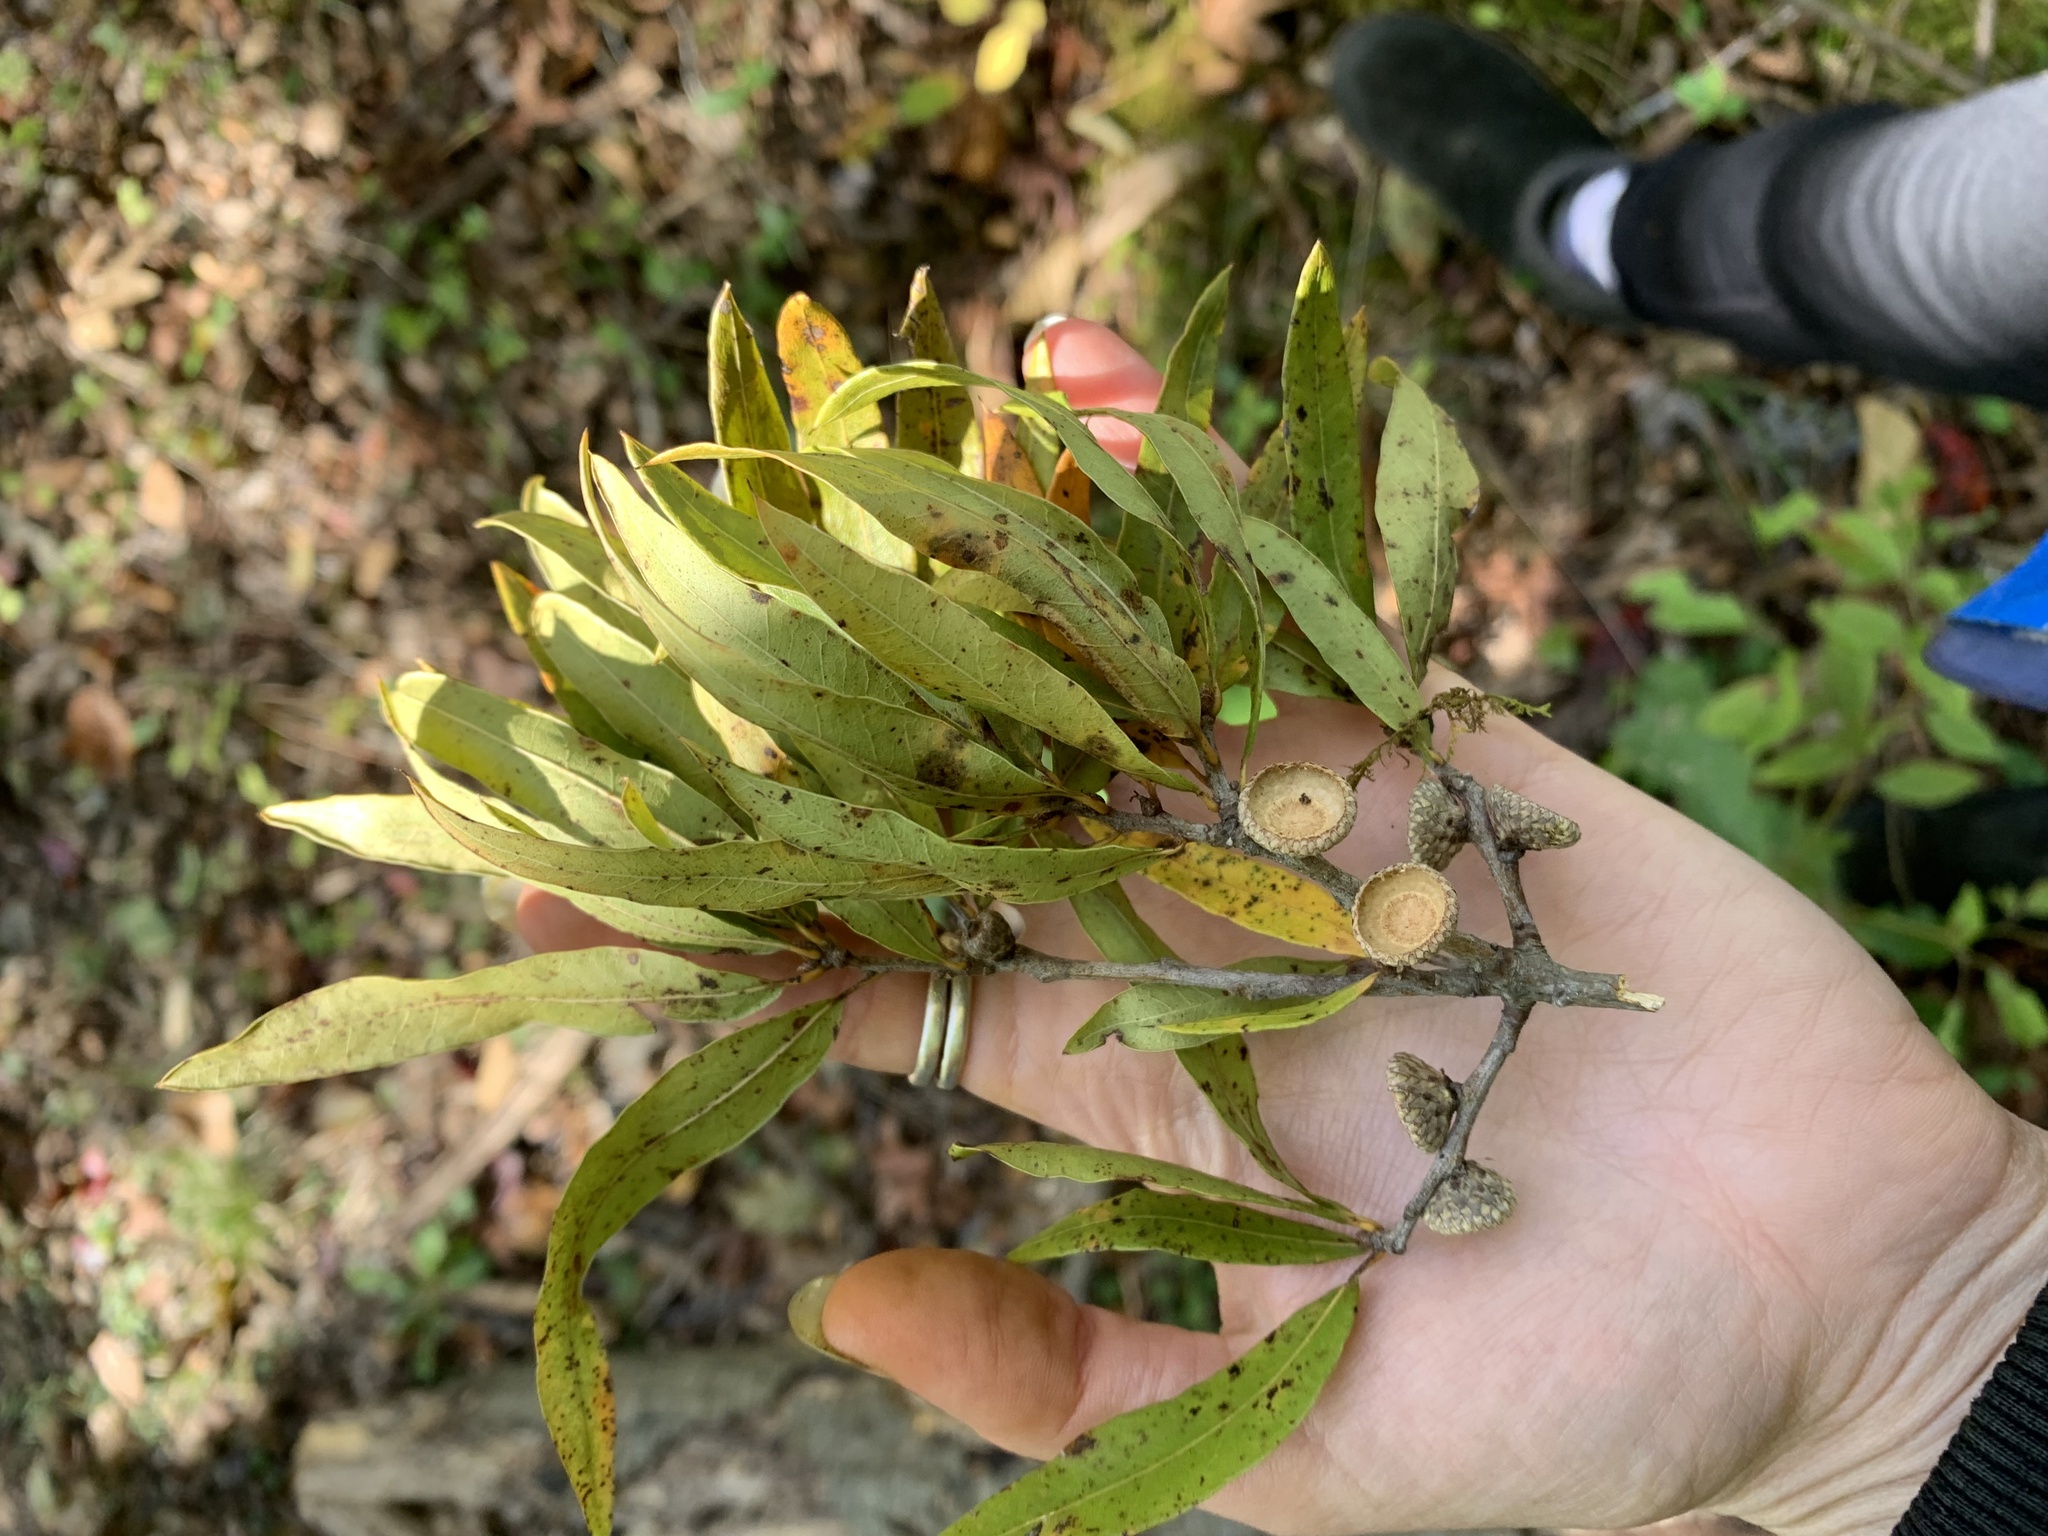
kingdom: Plantae
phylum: Tracheophyta
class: Magnoliopsida
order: Fagales
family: Fagaceae
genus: Quercus
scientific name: Quercus phellos
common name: Willow oak
